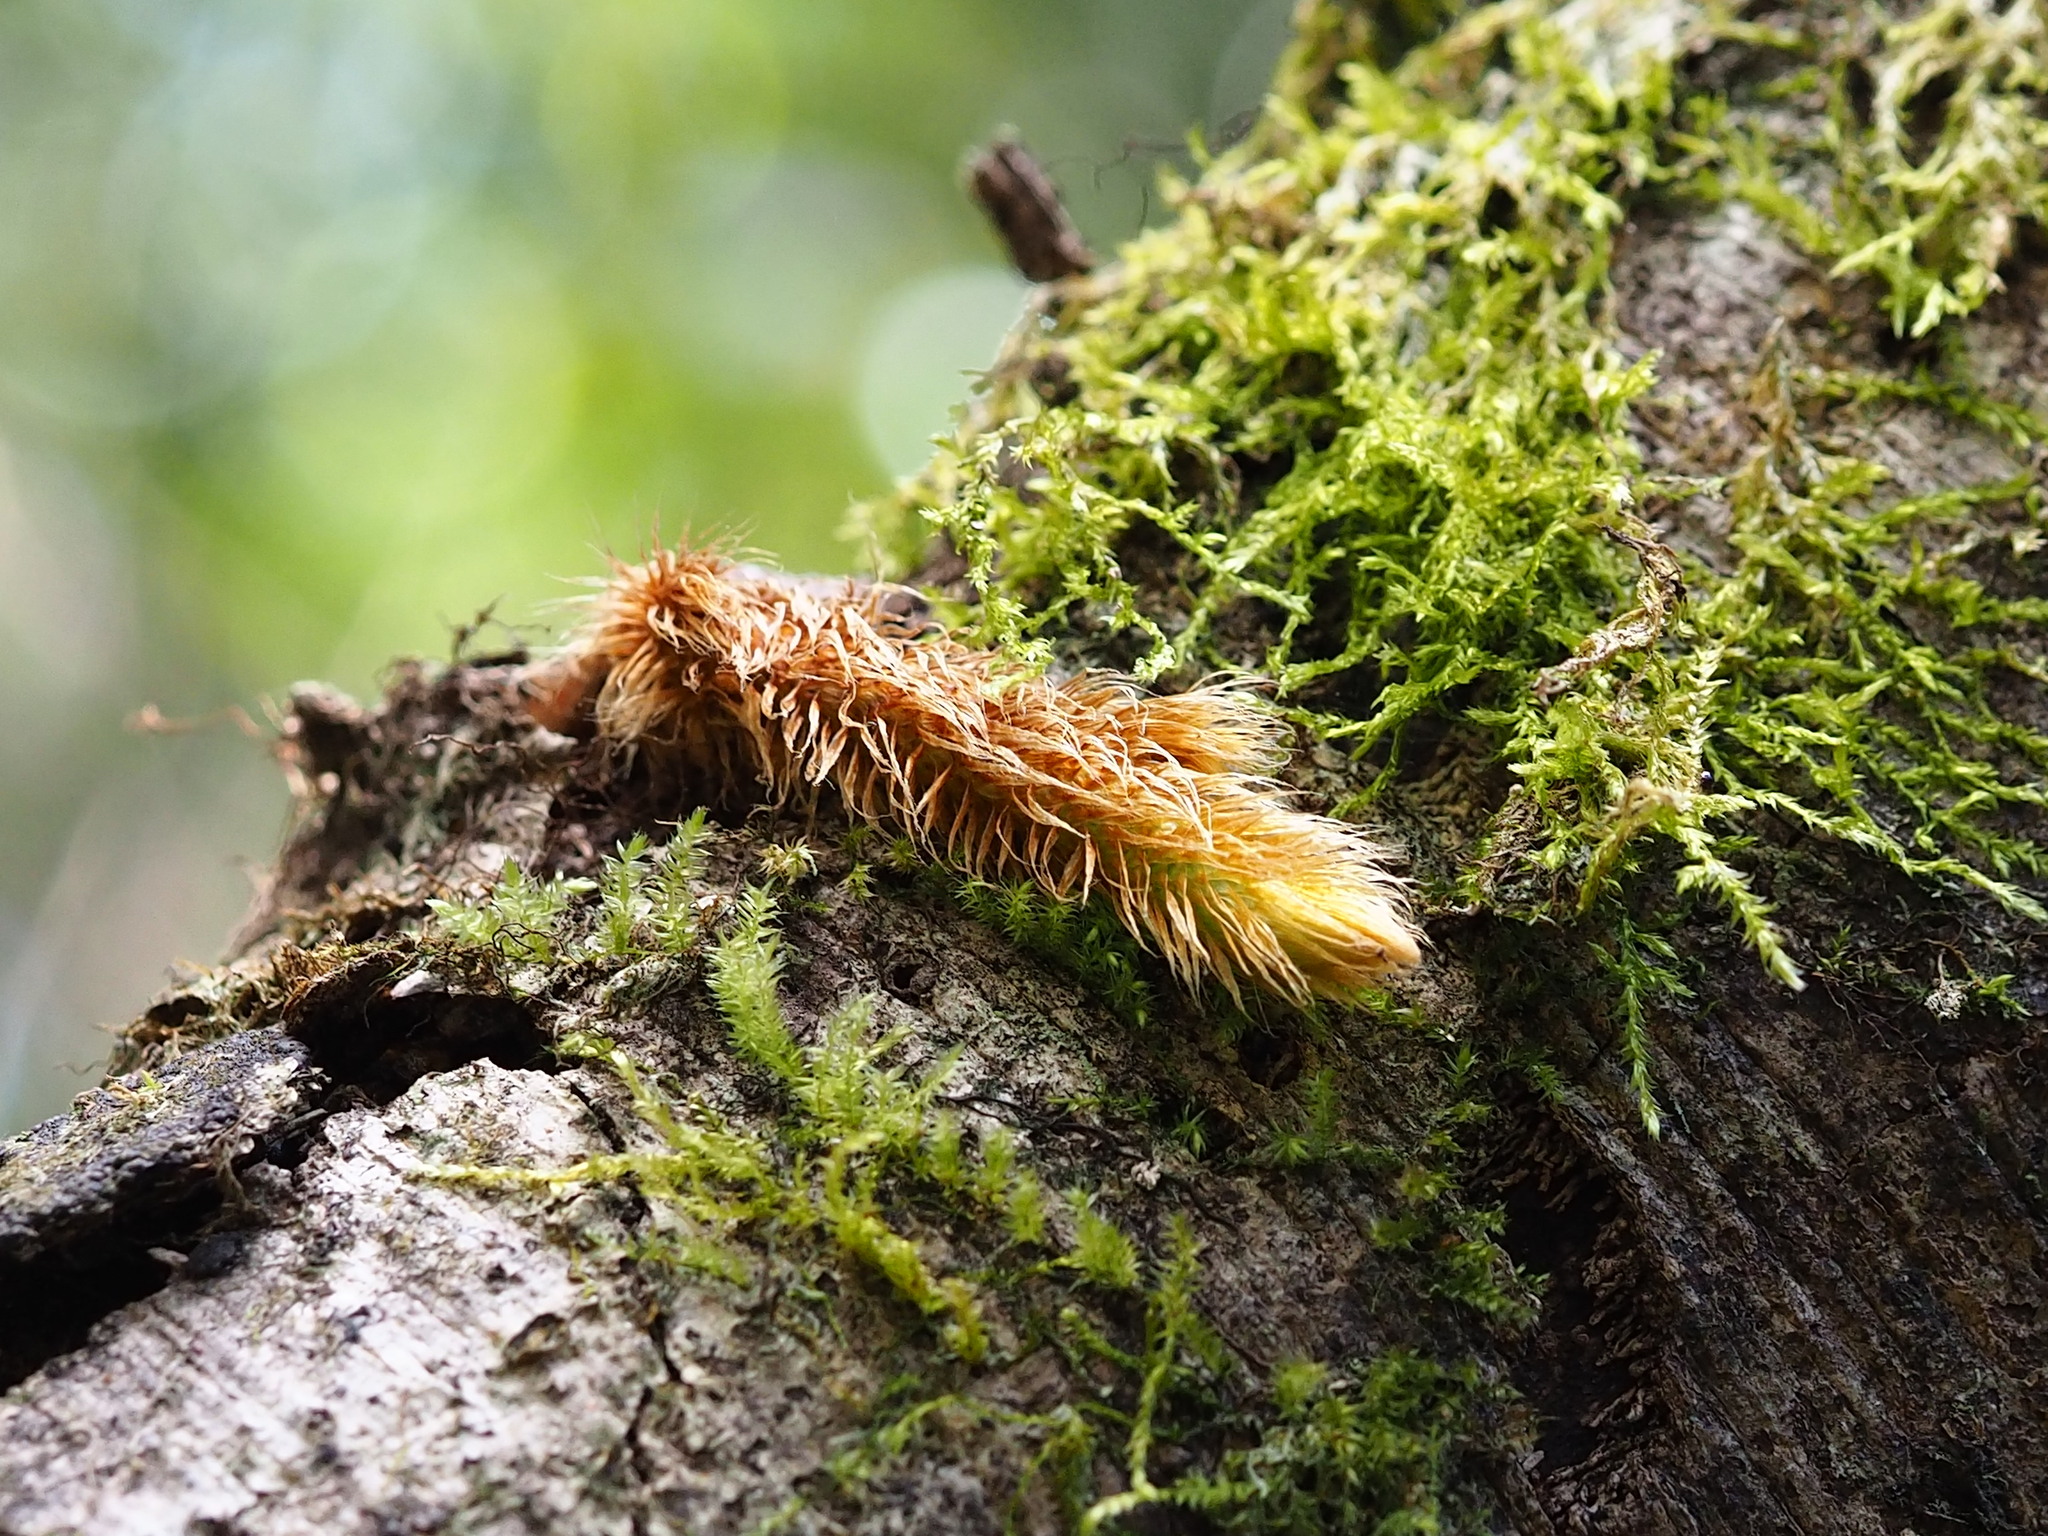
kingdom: Plantae
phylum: Tracheophyta
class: Polypodiopsida
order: Polypodiales
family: Davalliaceae
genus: Davallia
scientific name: Davallia trichomanoides
